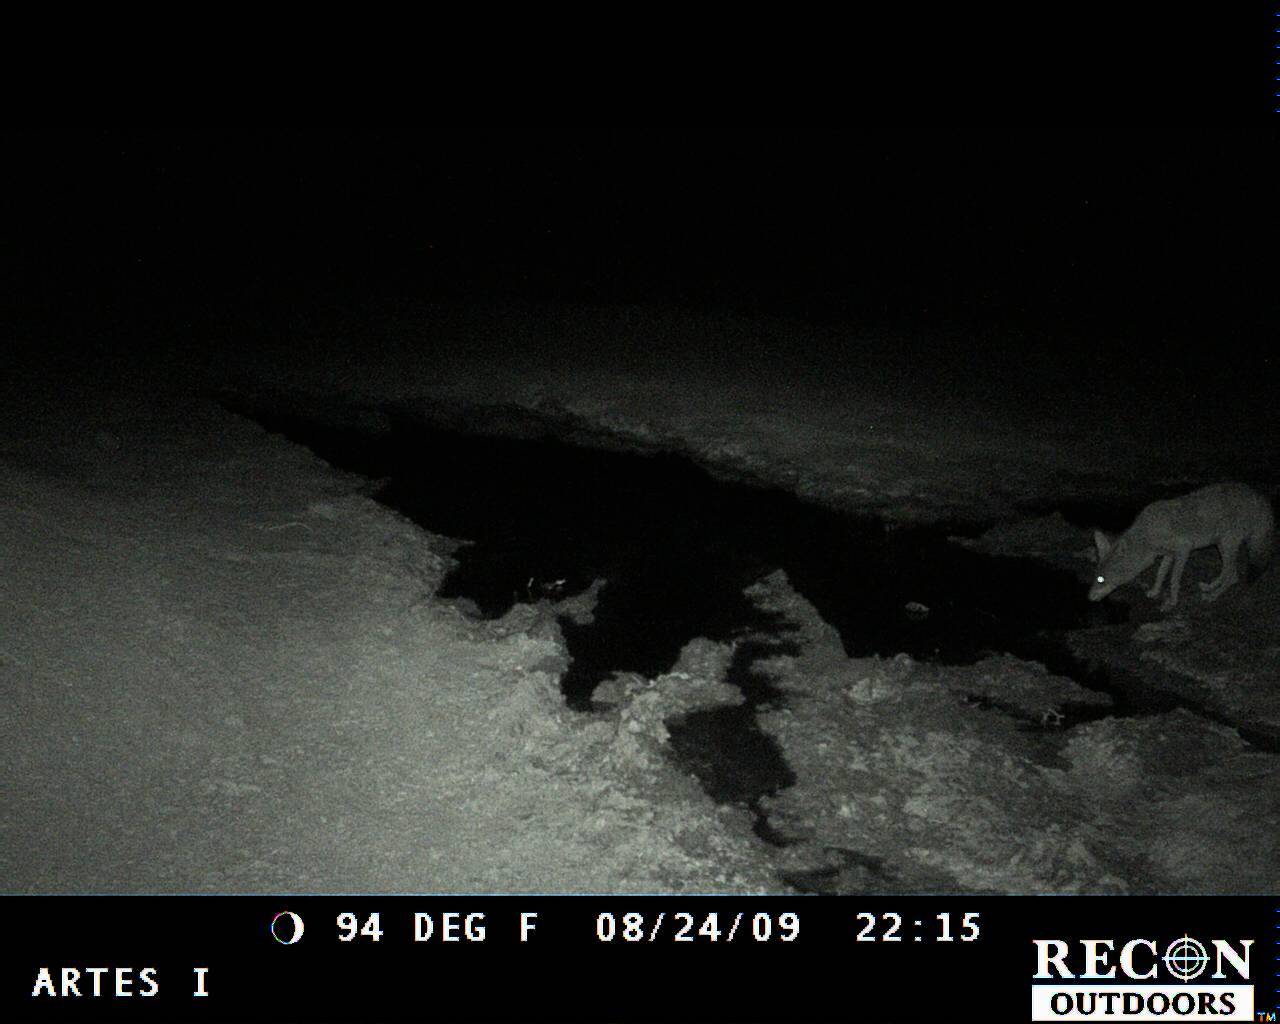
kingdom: Animalia
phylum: Chordata
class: Mammalia
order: Carnivora
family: Canidae
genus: Canis
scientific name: Canis latrans
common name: Coyote
